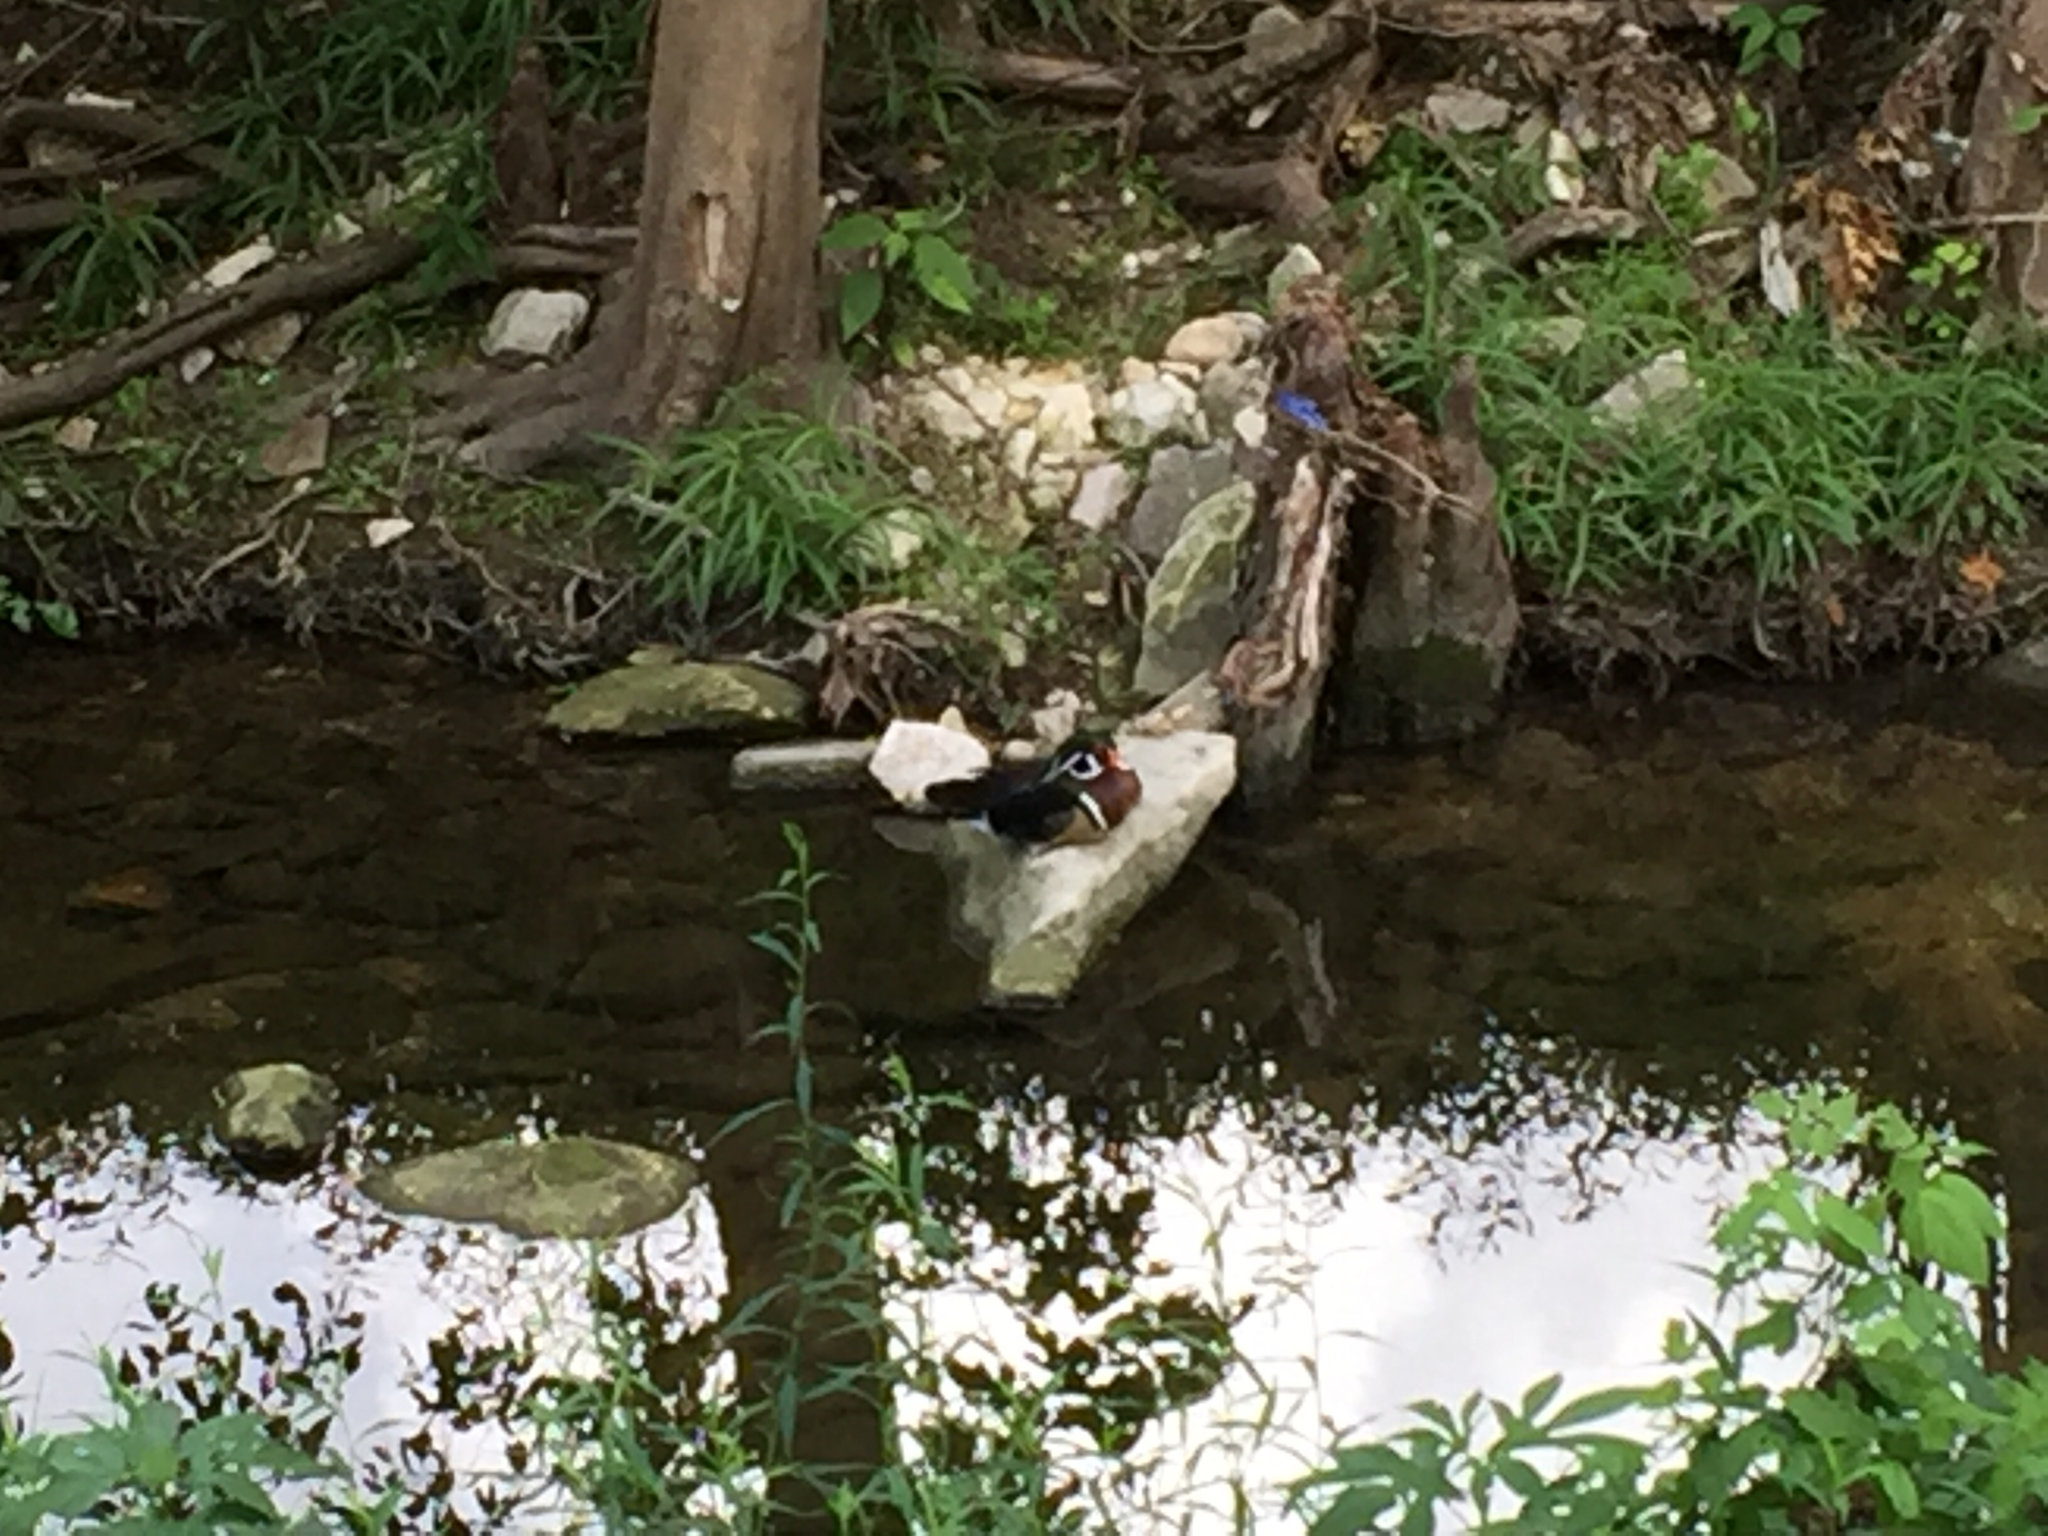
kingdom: Animalia
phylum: Chordata
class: Aves
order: Anseriformes
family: Anatidae
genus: Aix
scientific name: Aix sponsa
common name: Wood duck
